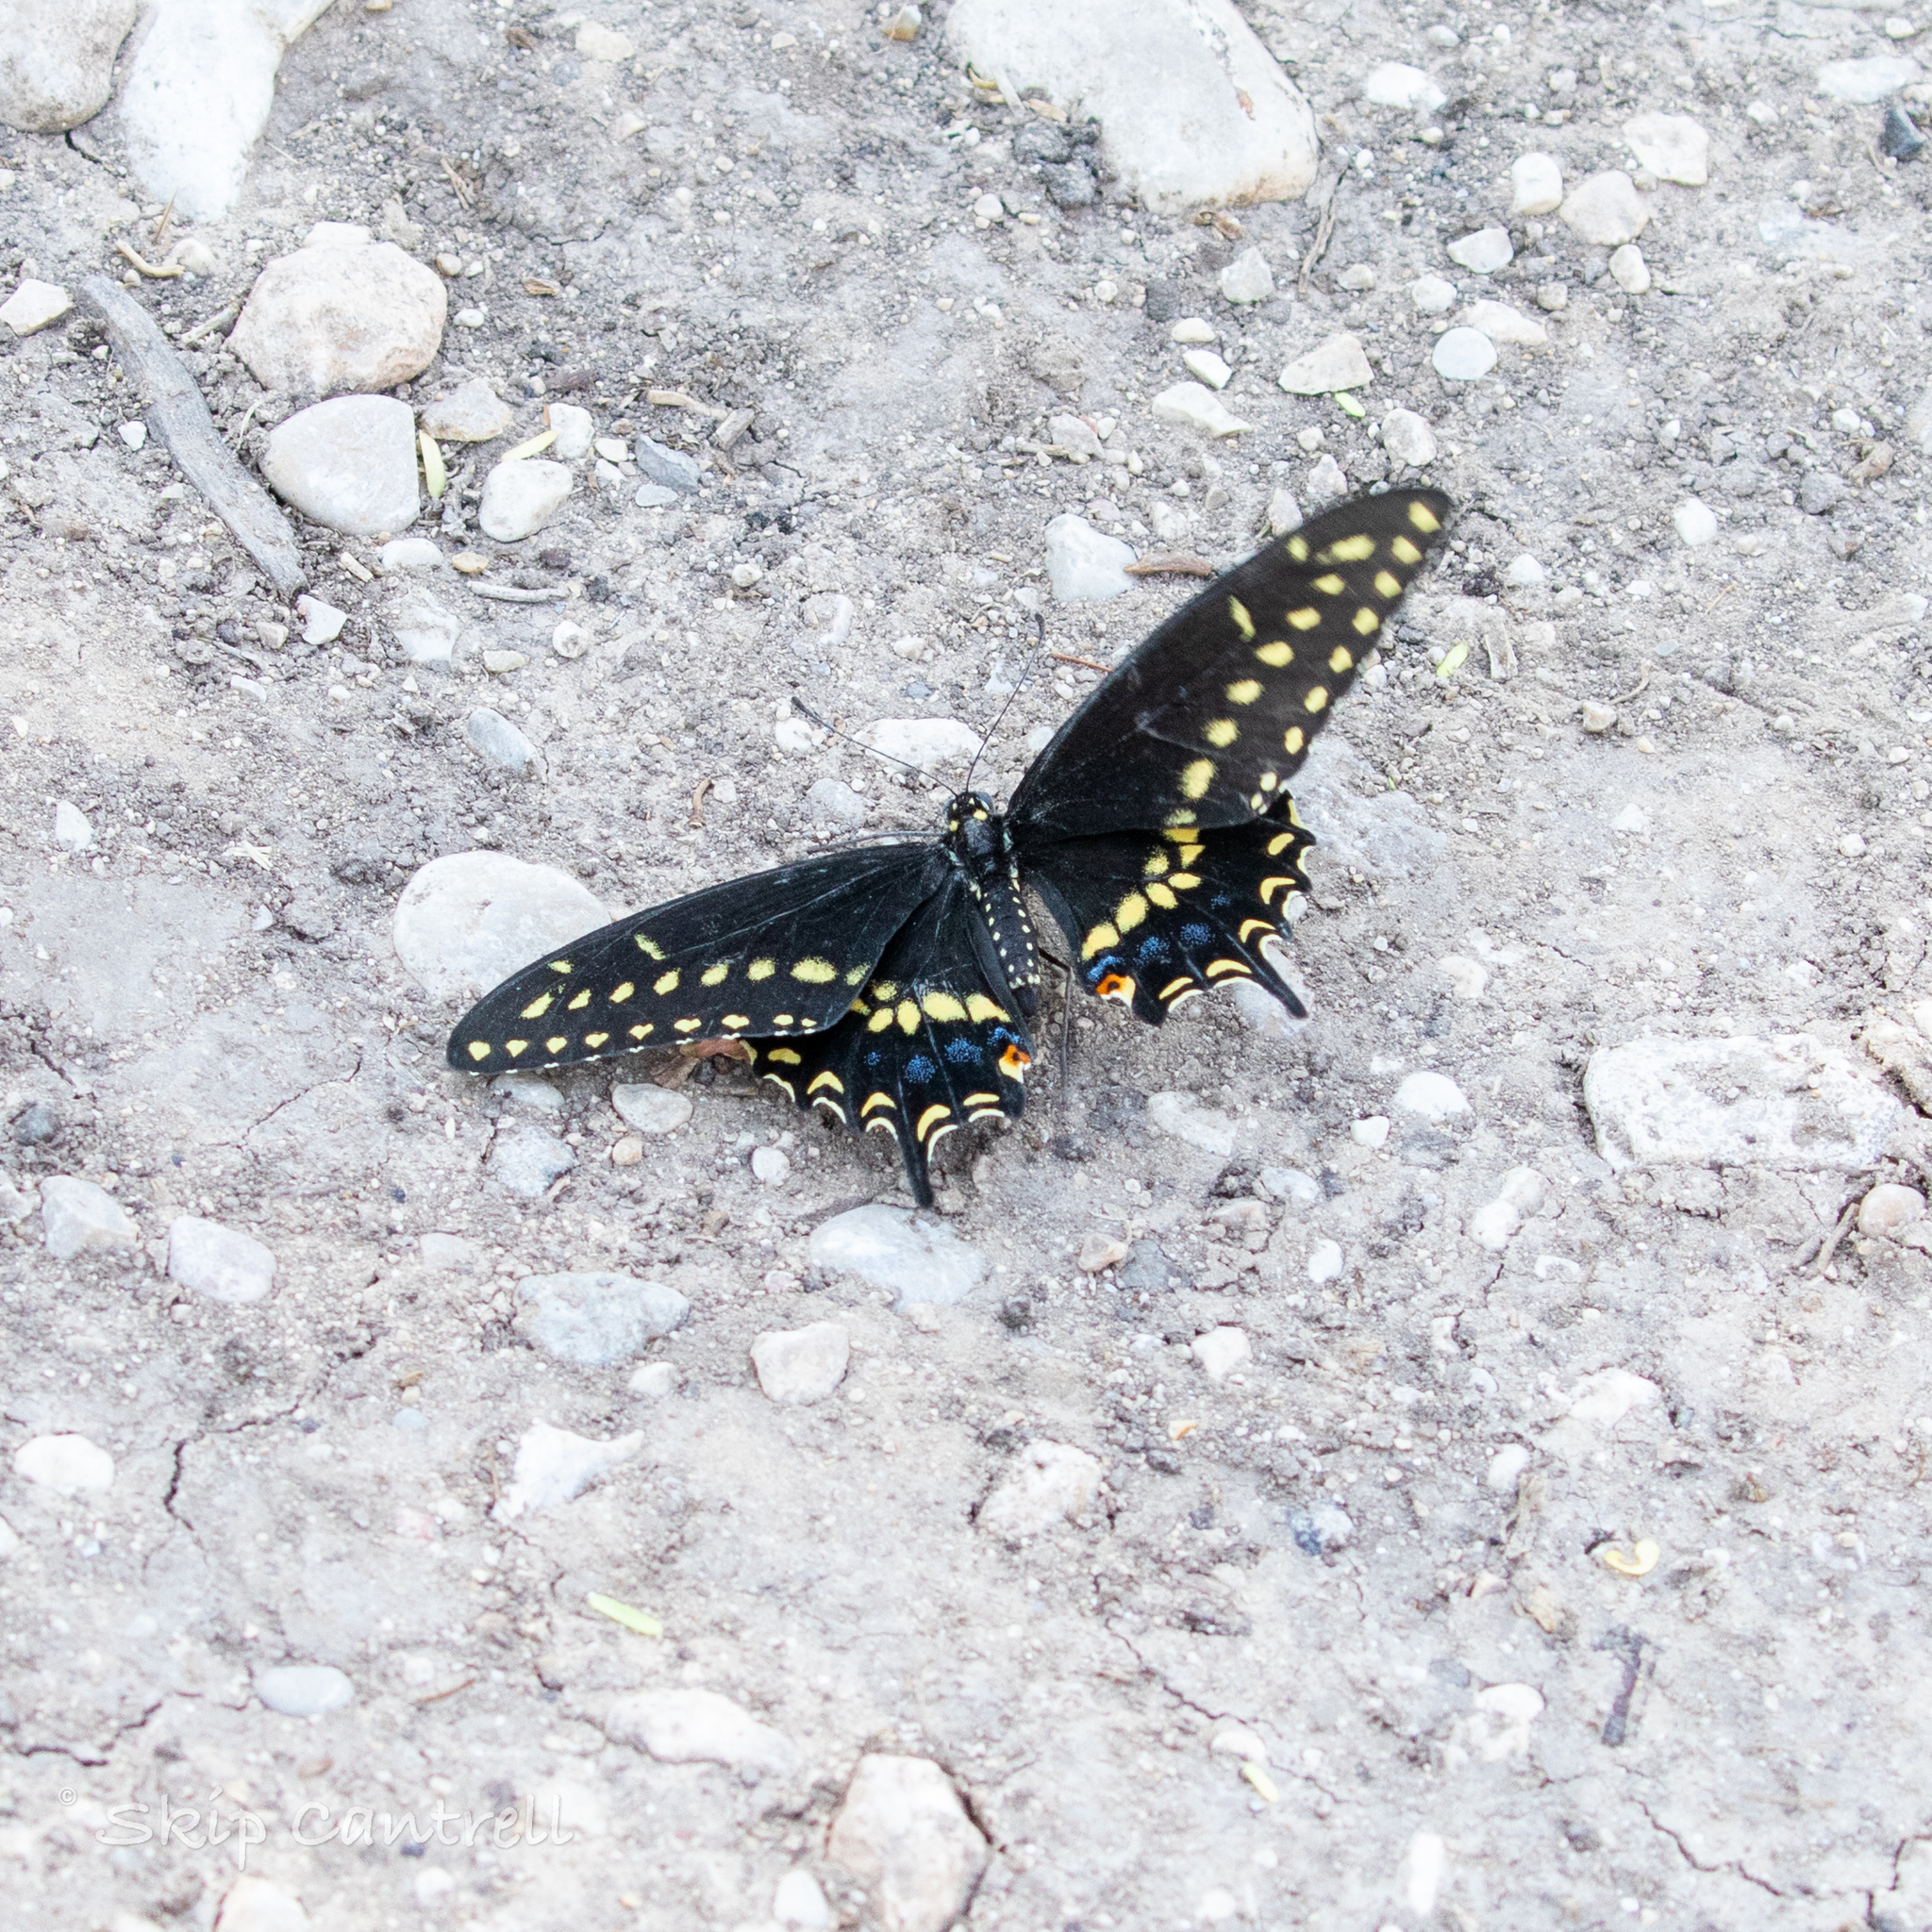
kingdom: Animalia
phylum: Arthropoda
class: Insecta
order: Lepidoptera
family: Papilionidae
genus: Papilio
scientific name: Papilio polyxenes
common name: Black swallowtail
